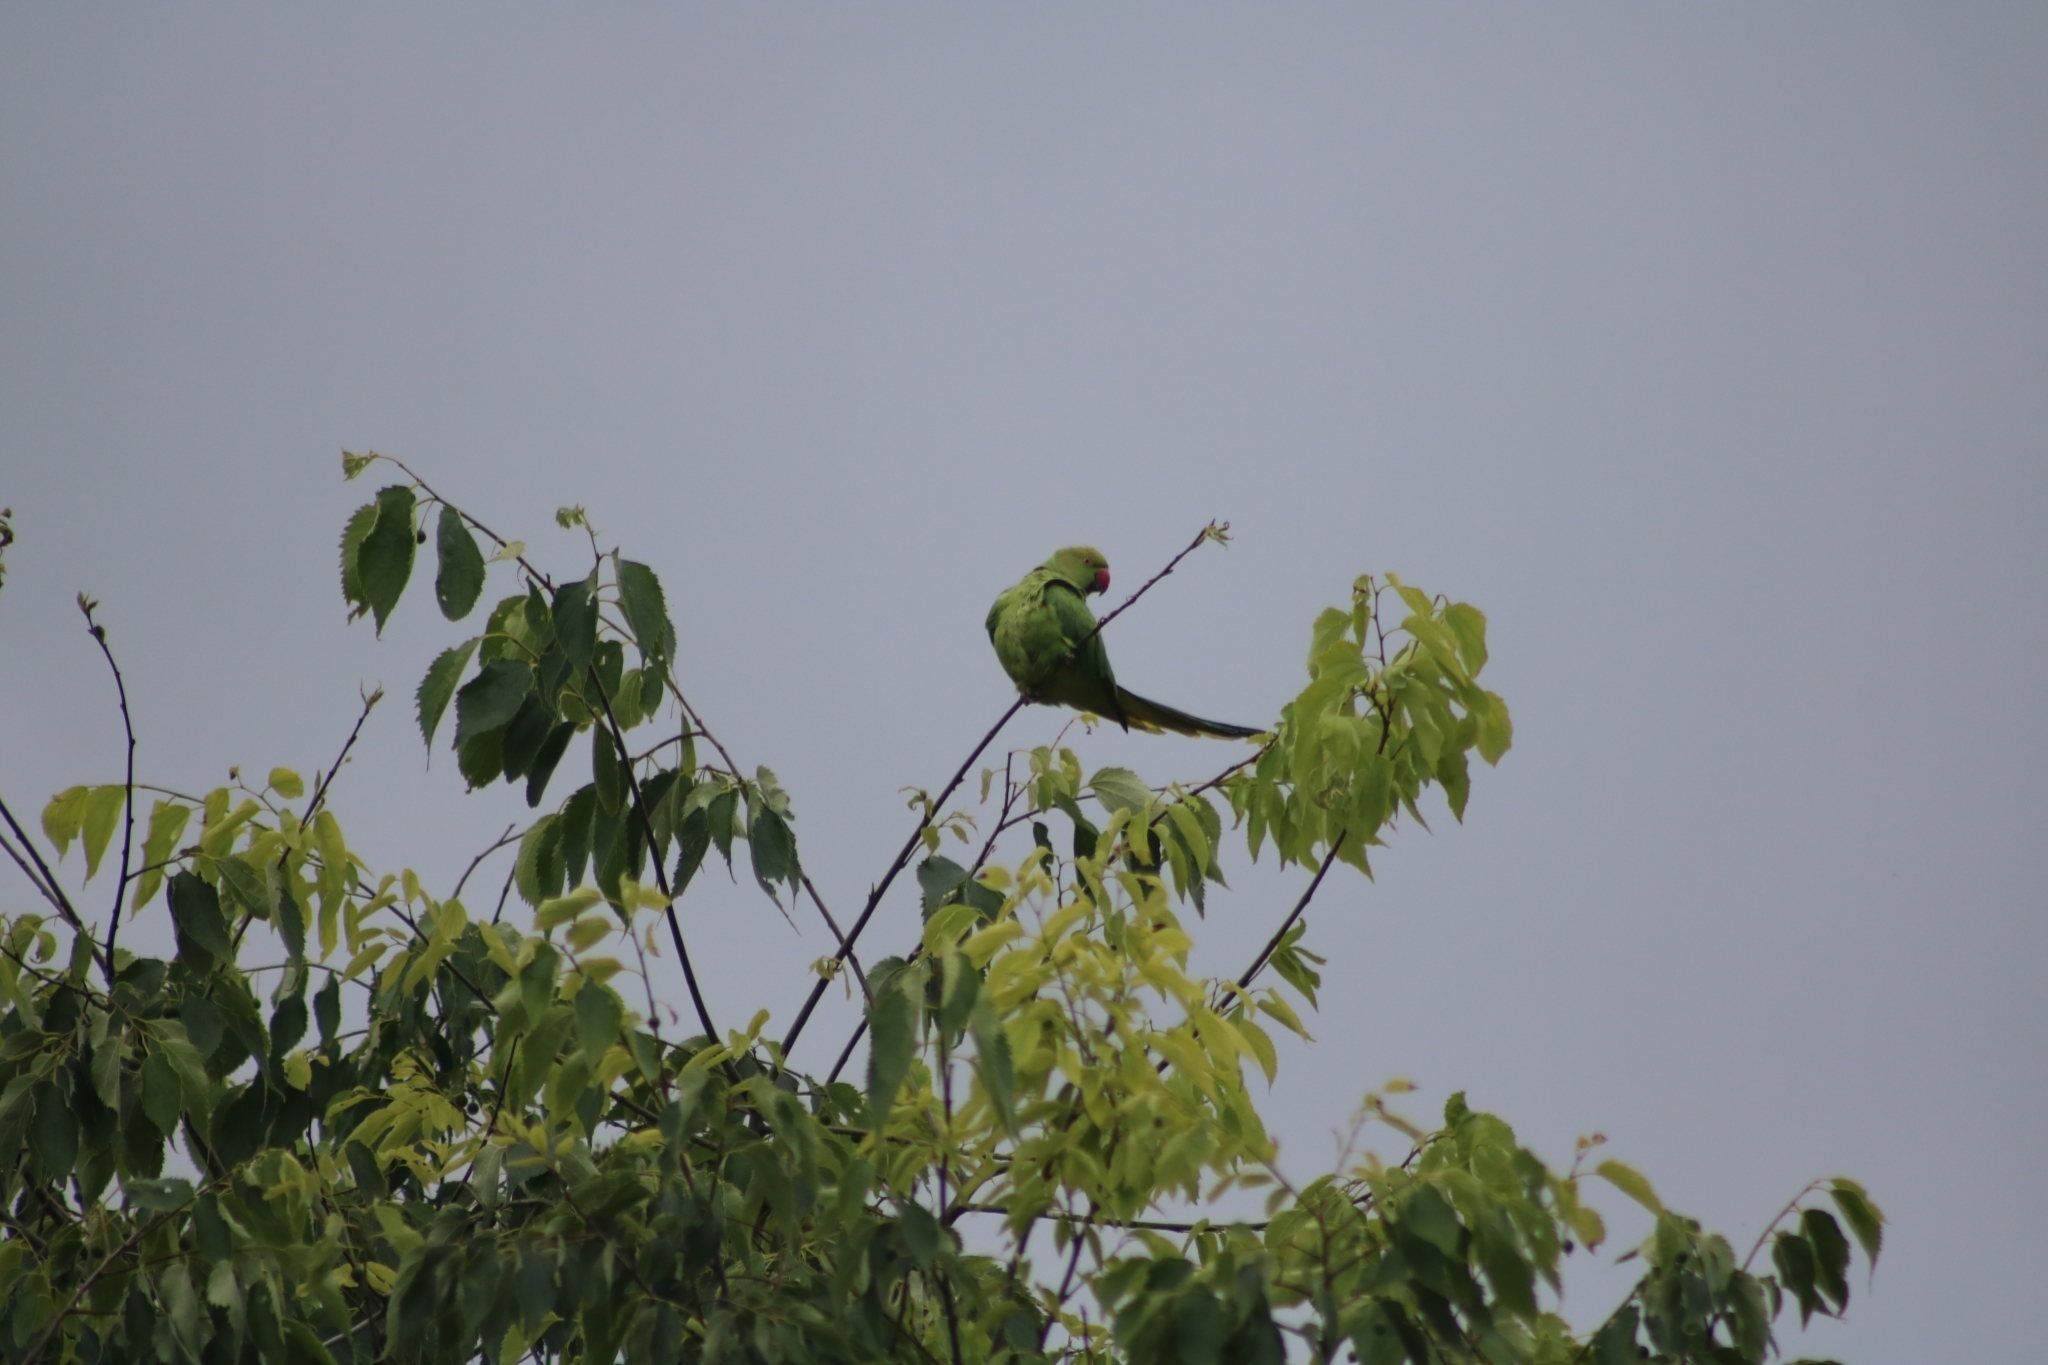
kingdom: Animalia
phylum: Chordata
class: Aves
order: Psittaciformes
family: Psittacidae
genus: Psittacula
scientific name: Psittacula krameri
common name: Rose-ringed parakeet
